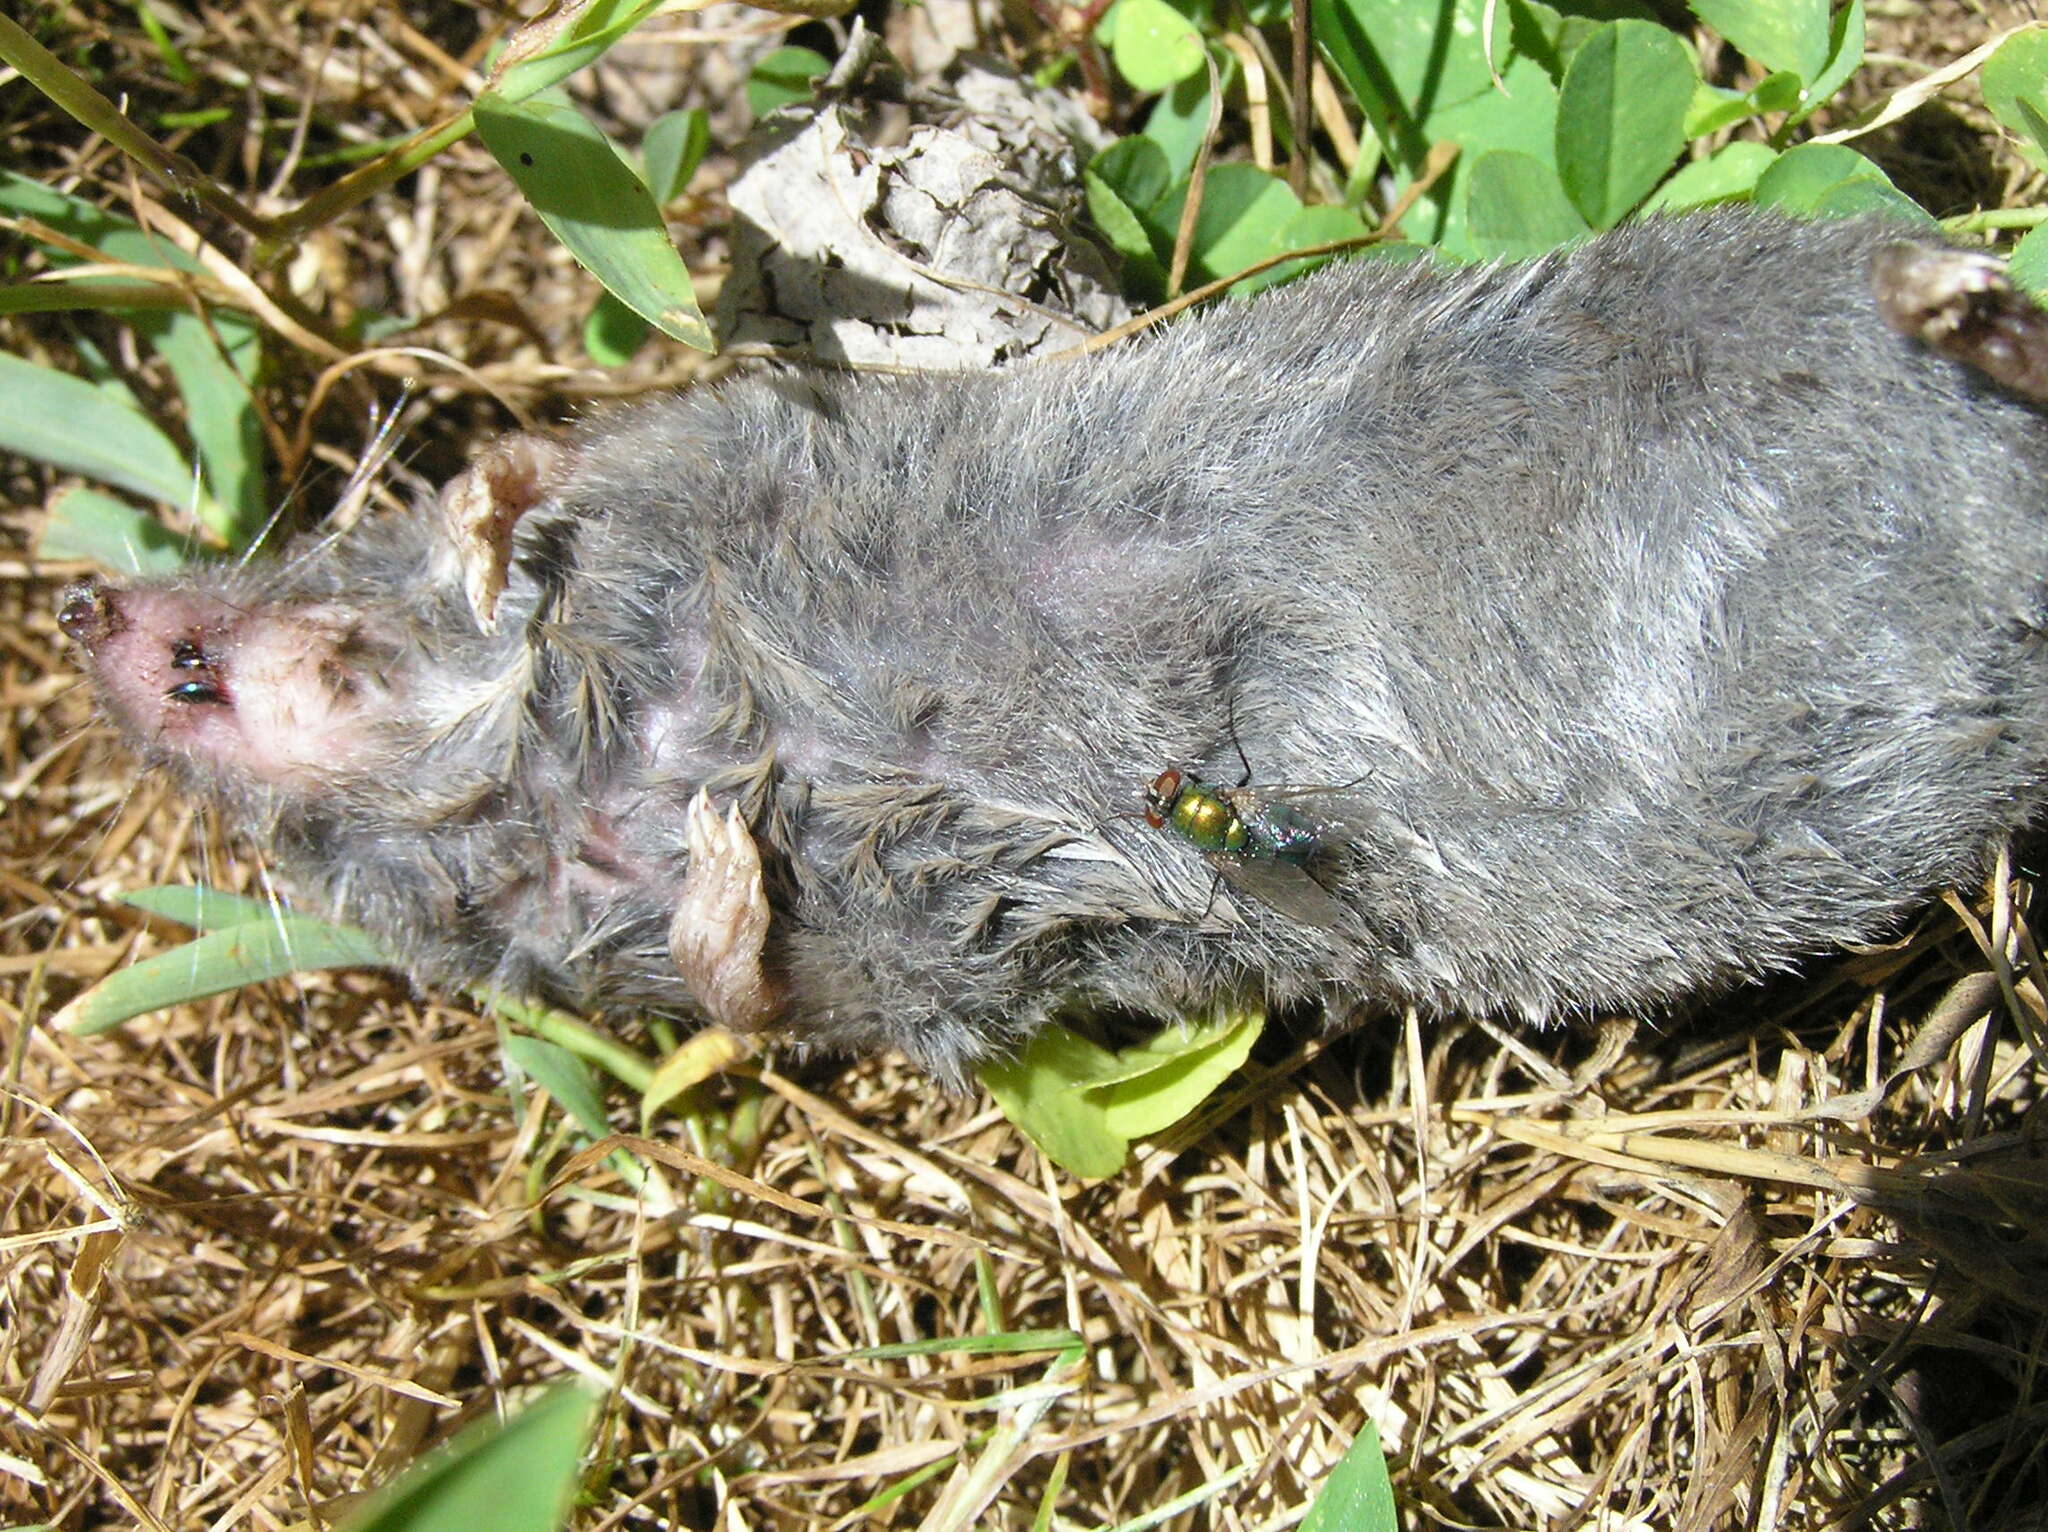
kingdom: Animalia
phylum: Chordata
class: Mammalia
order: Soricomorpha
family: Soricidae
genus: Blarina
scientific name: Blarina brevicauda
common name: Northern short-tailed shrew
